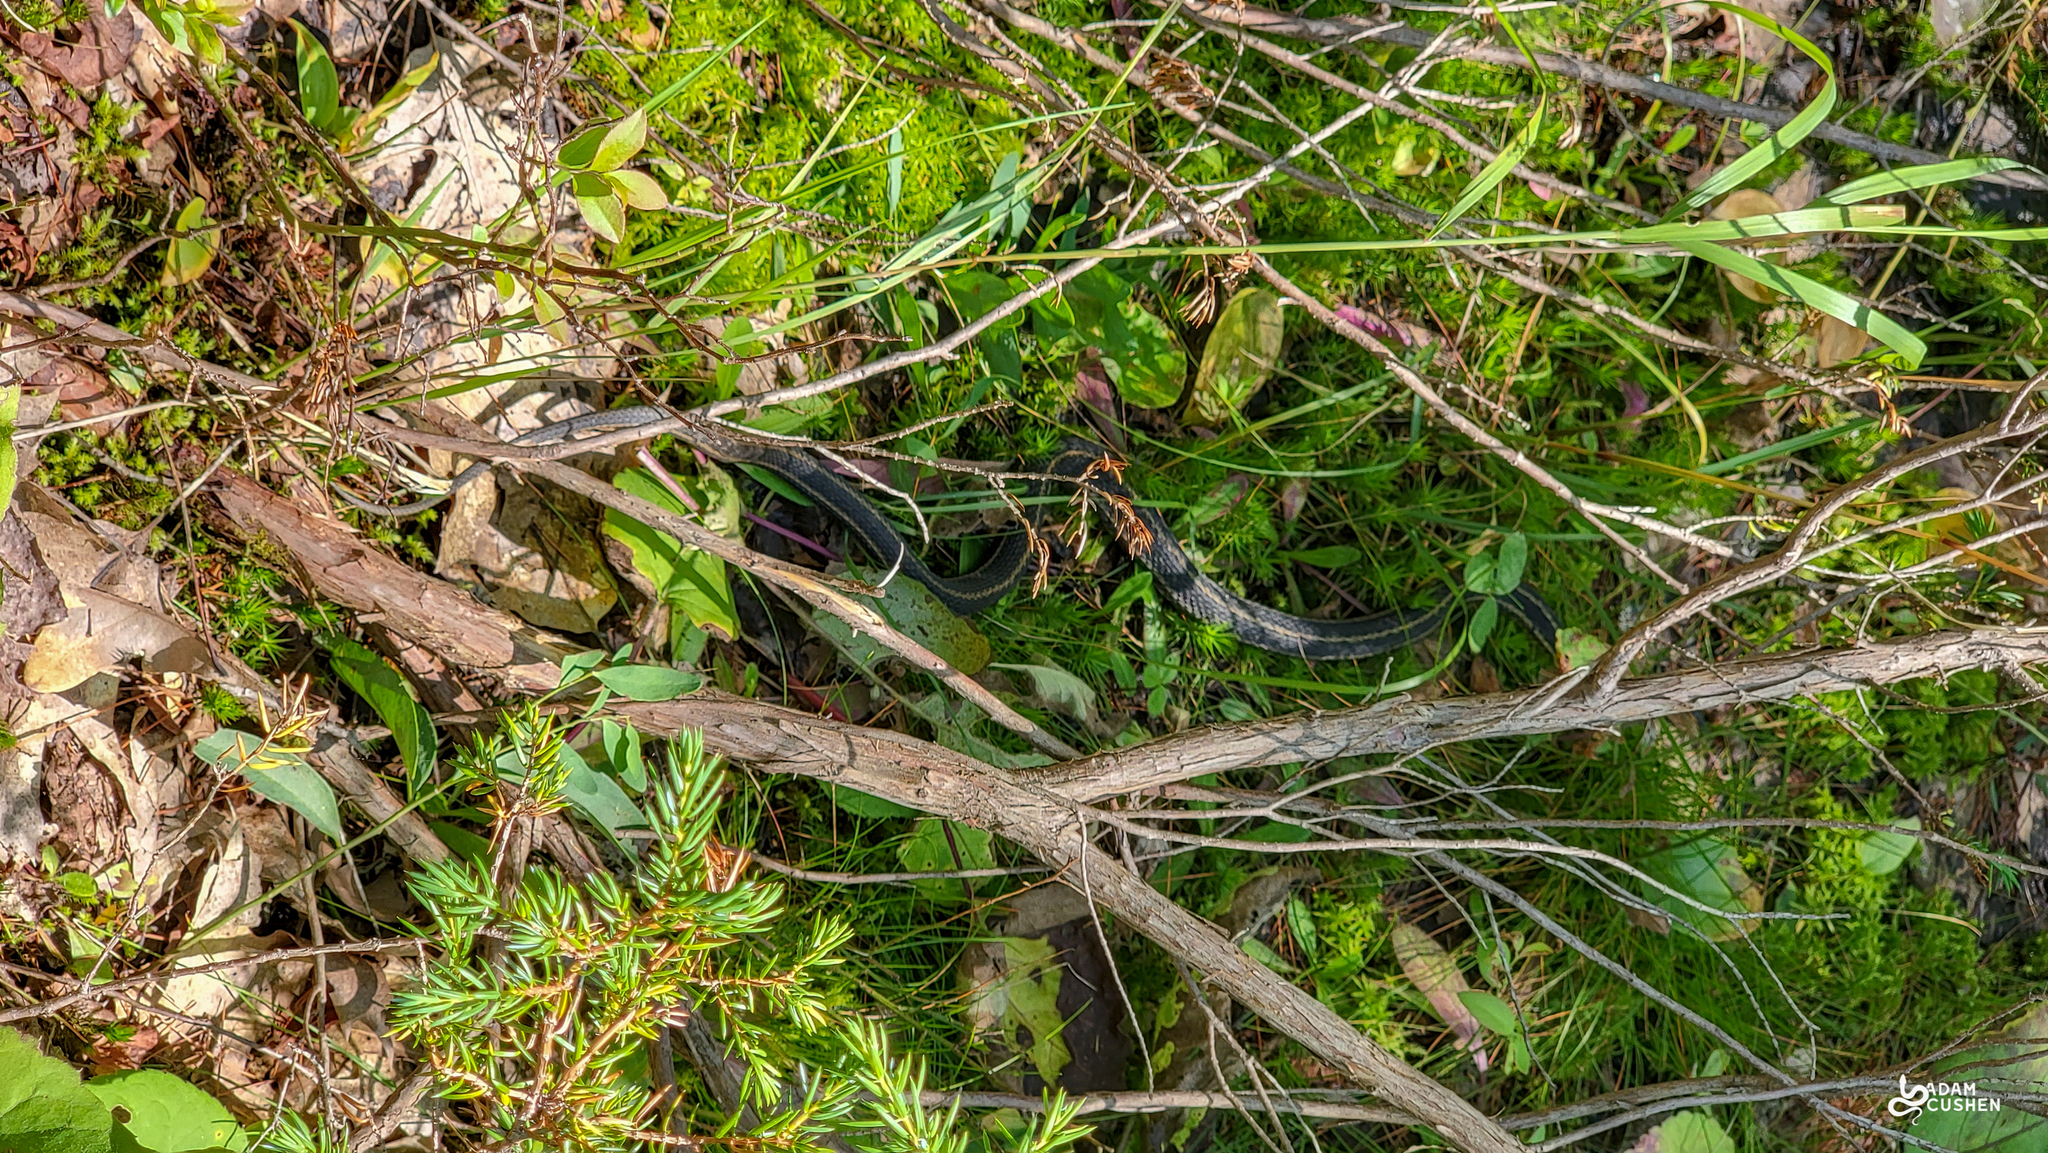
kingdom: Animalia
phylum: Chordata
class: Squamata
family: Colubridae
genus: Thamnophis
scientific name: Thamnophis sirtalis
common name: Common garter snake
